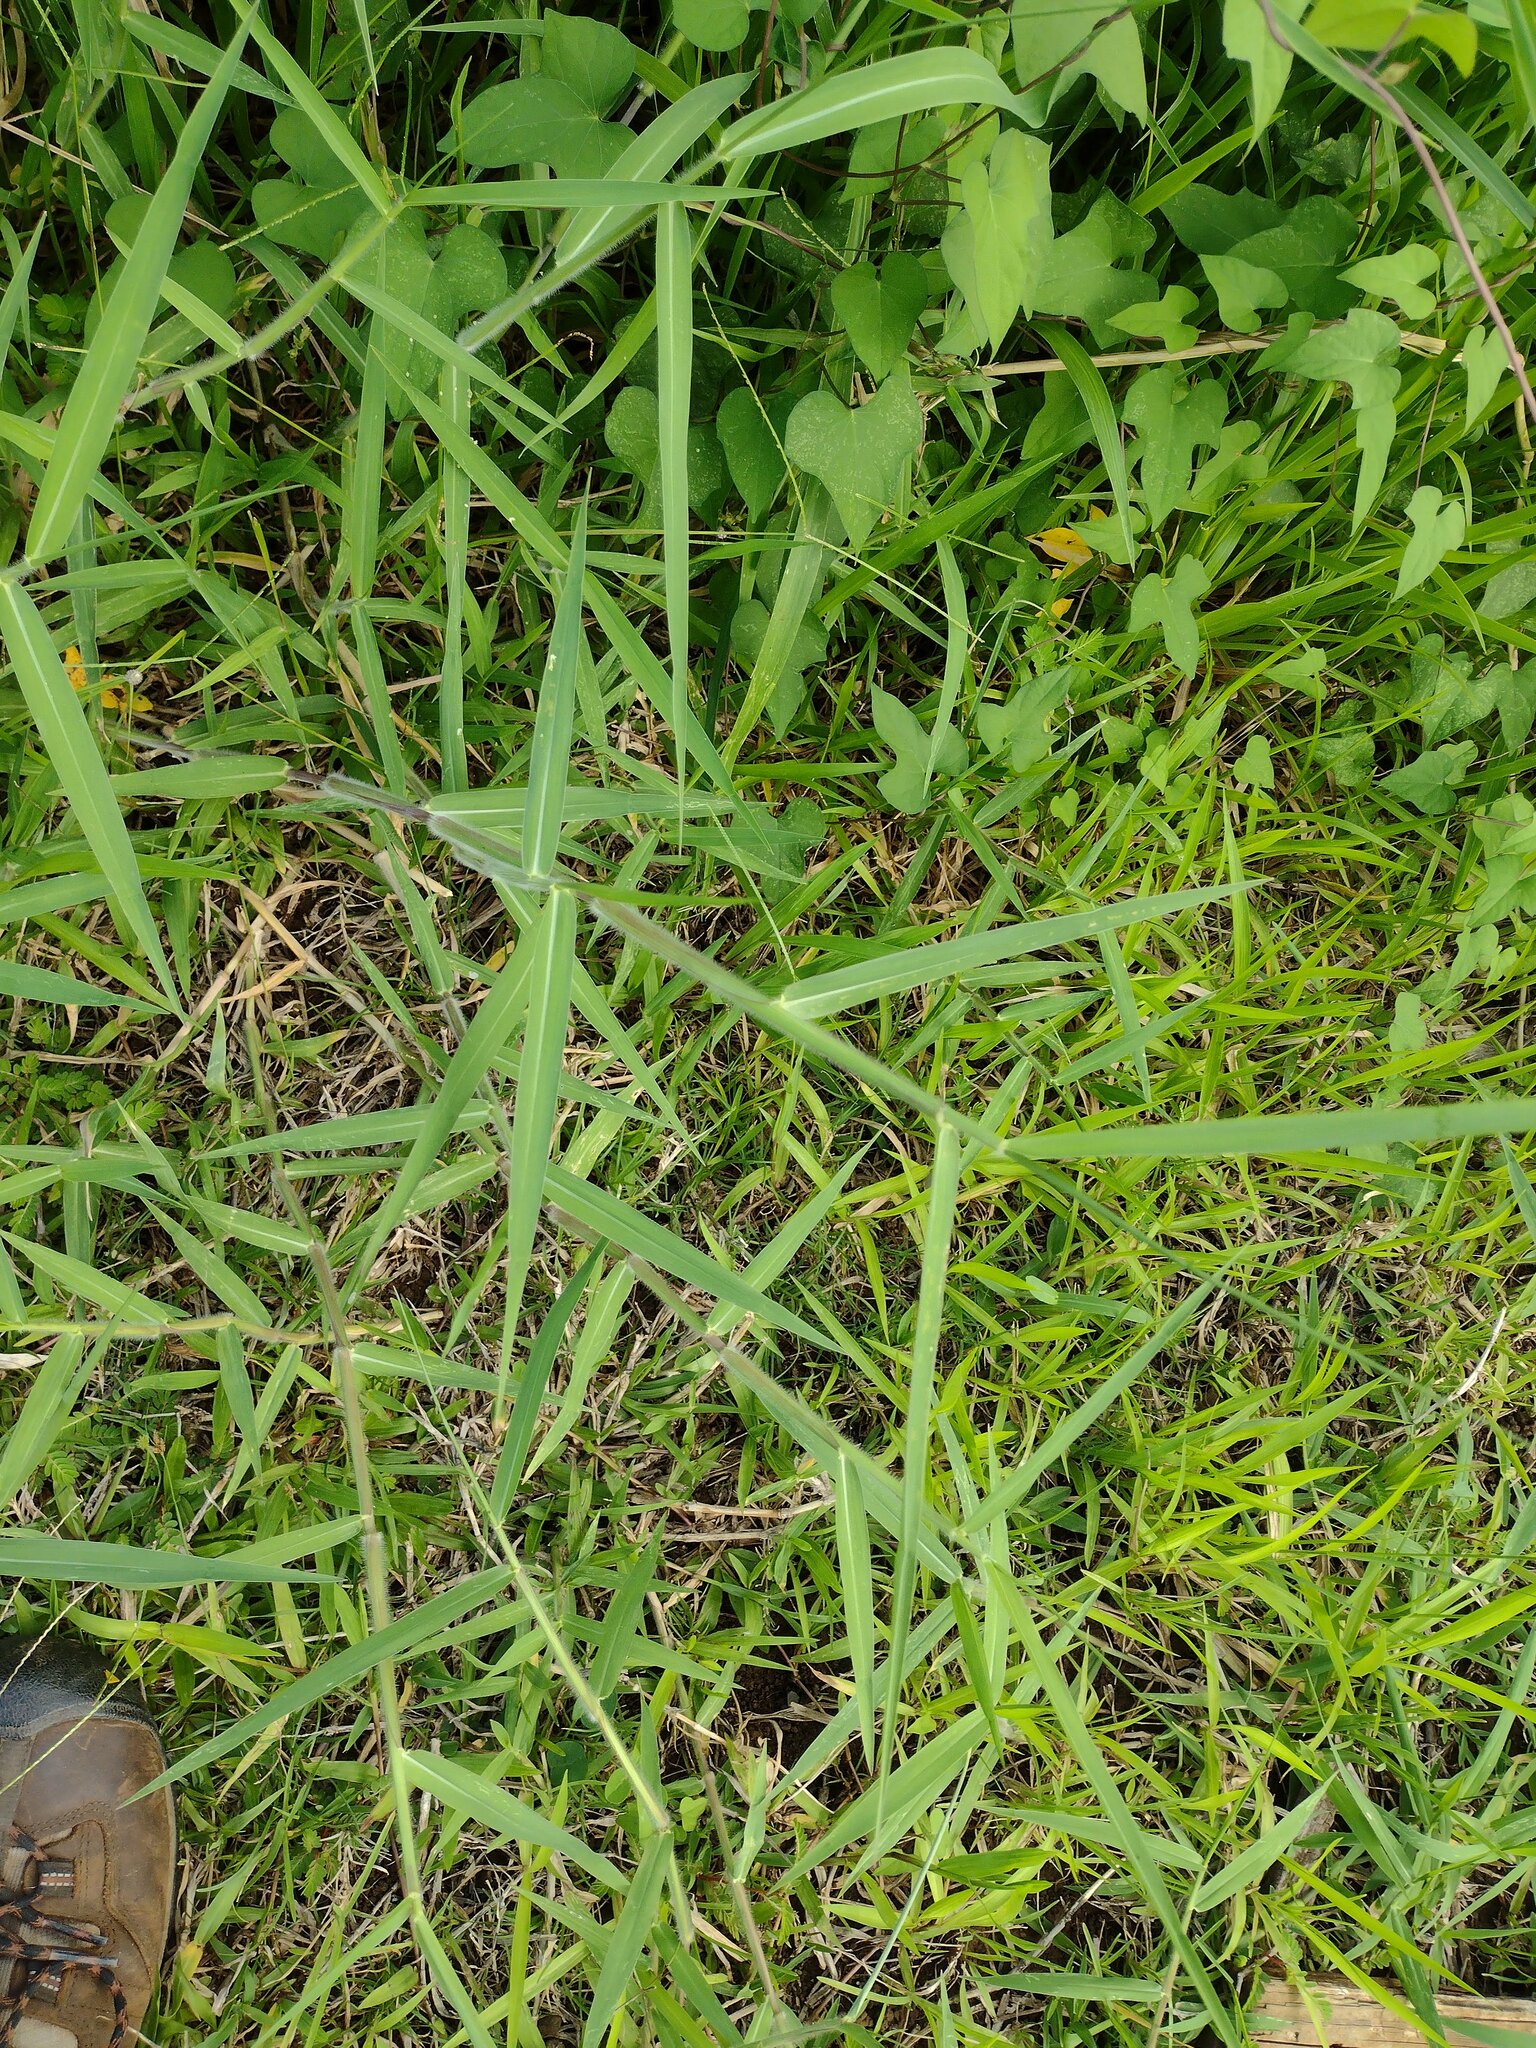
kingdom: Plantae
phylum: Tracheophyta
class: Liliopsida
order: Poales
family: Poaceae
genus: Urochloa
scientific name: Urochloa mutica
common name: Para grass
